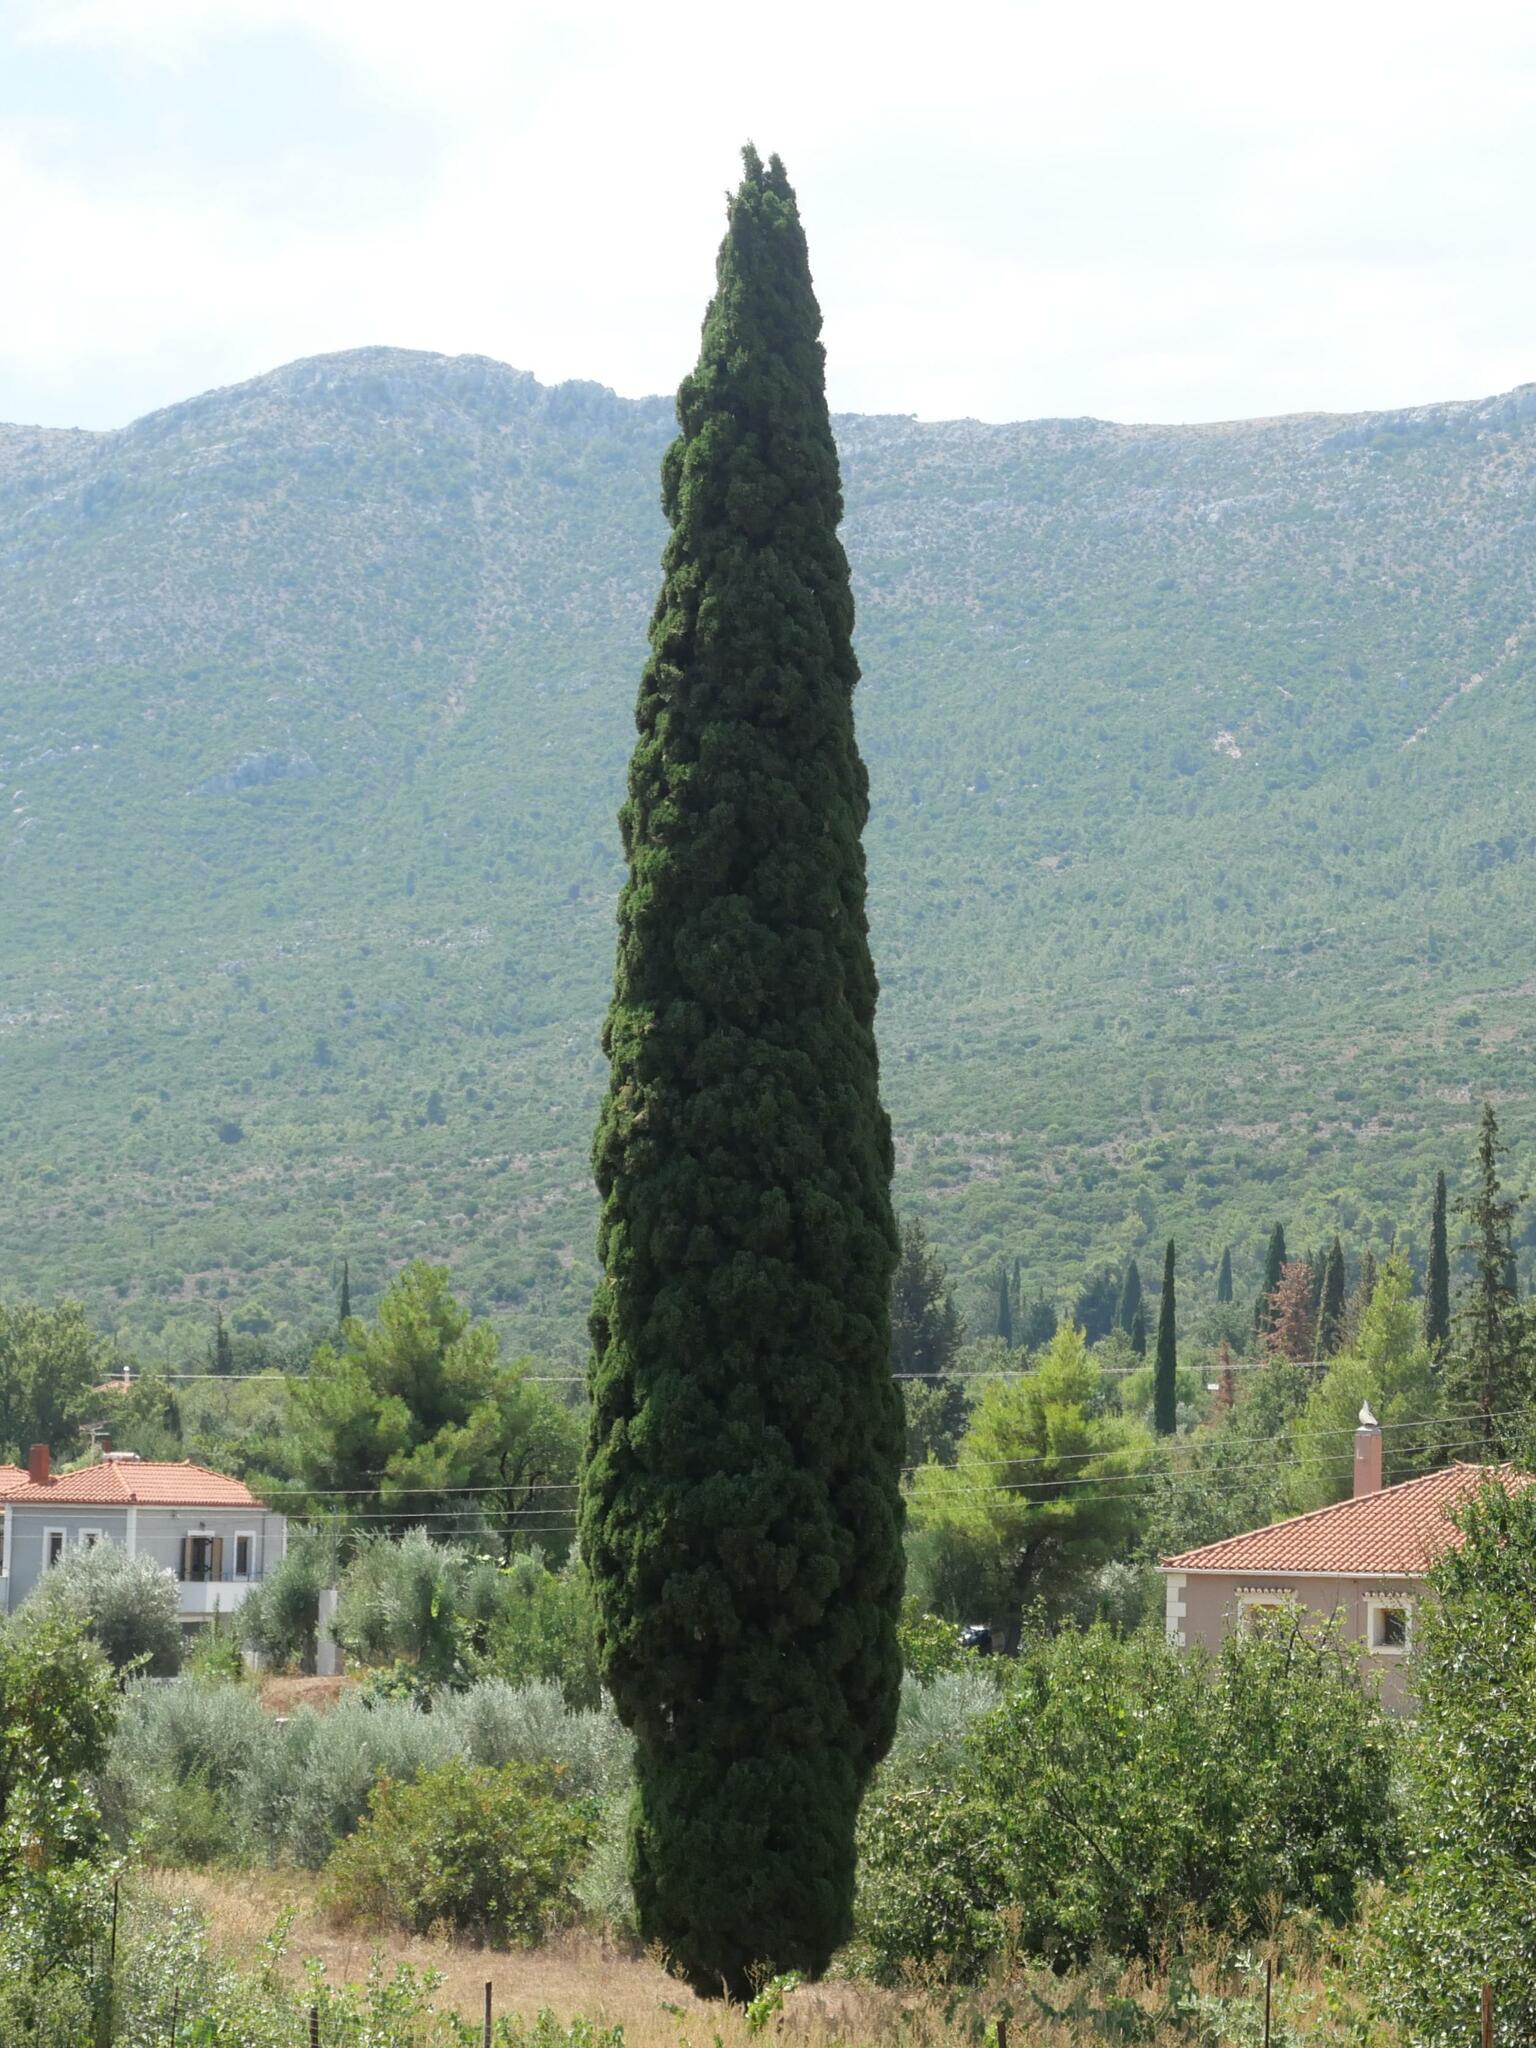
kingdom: Plantae
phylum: Tracheophyta
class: Pinopsida
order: Pinales
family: Cupressaceae
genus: Cupressus
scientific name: Cupressus sempervirens
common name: Italian cypress
